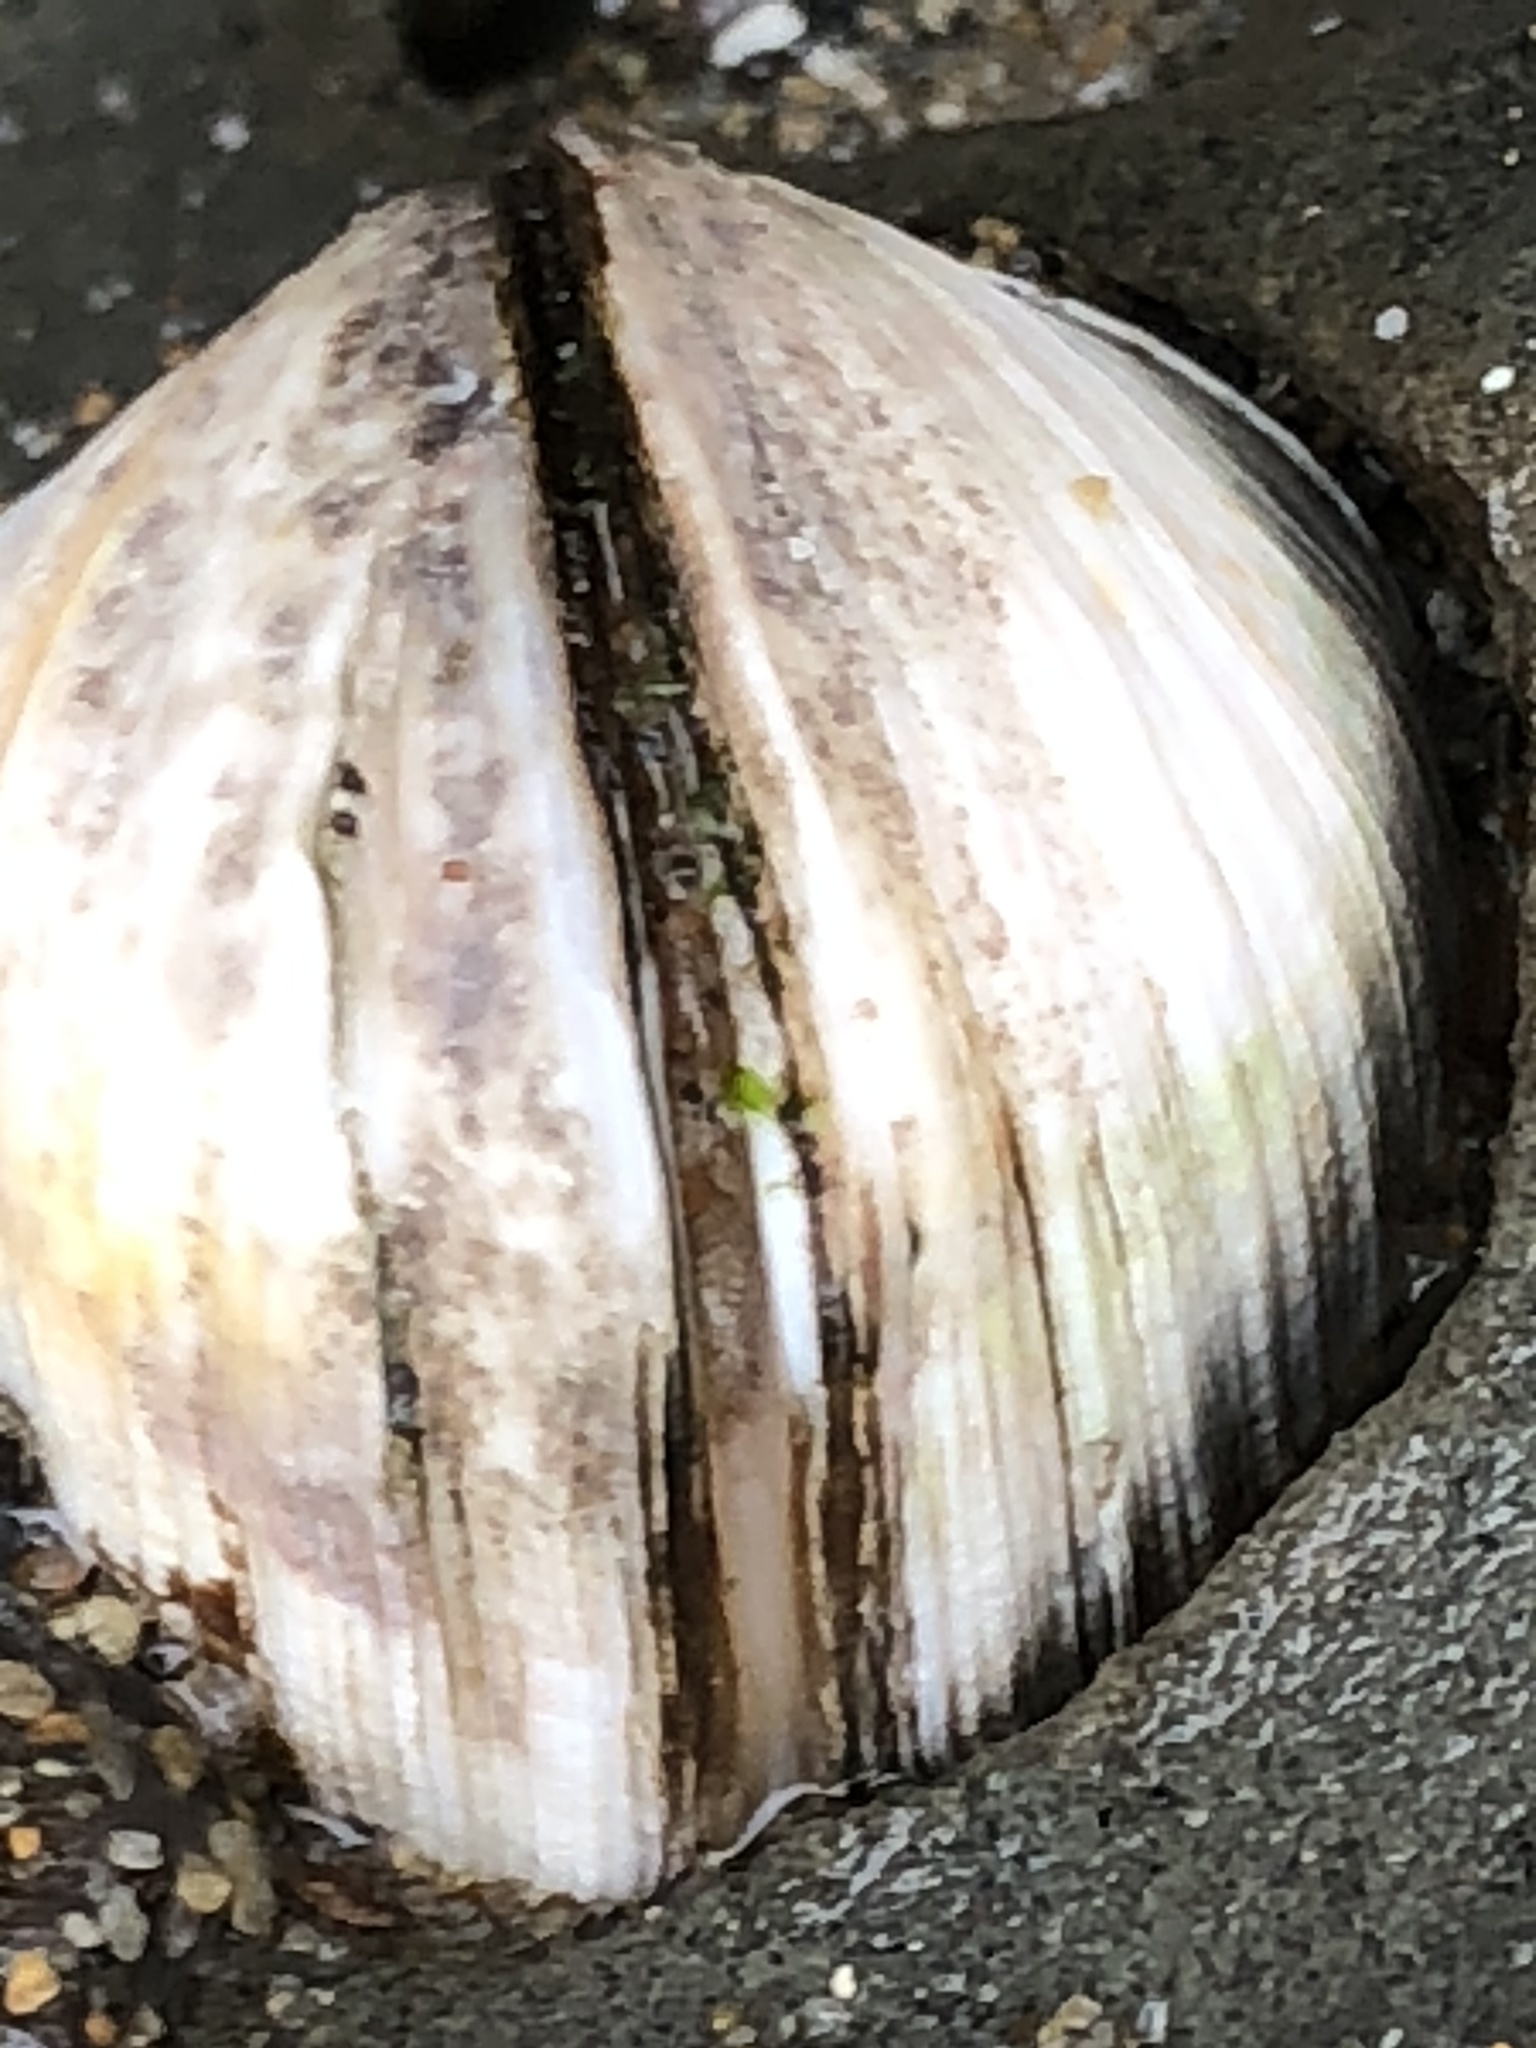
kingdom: Animalia
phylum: Mollusca
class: Bivalvia
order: Venerida
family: Veneridae
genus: Petricola
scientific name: Petricola carditoides
